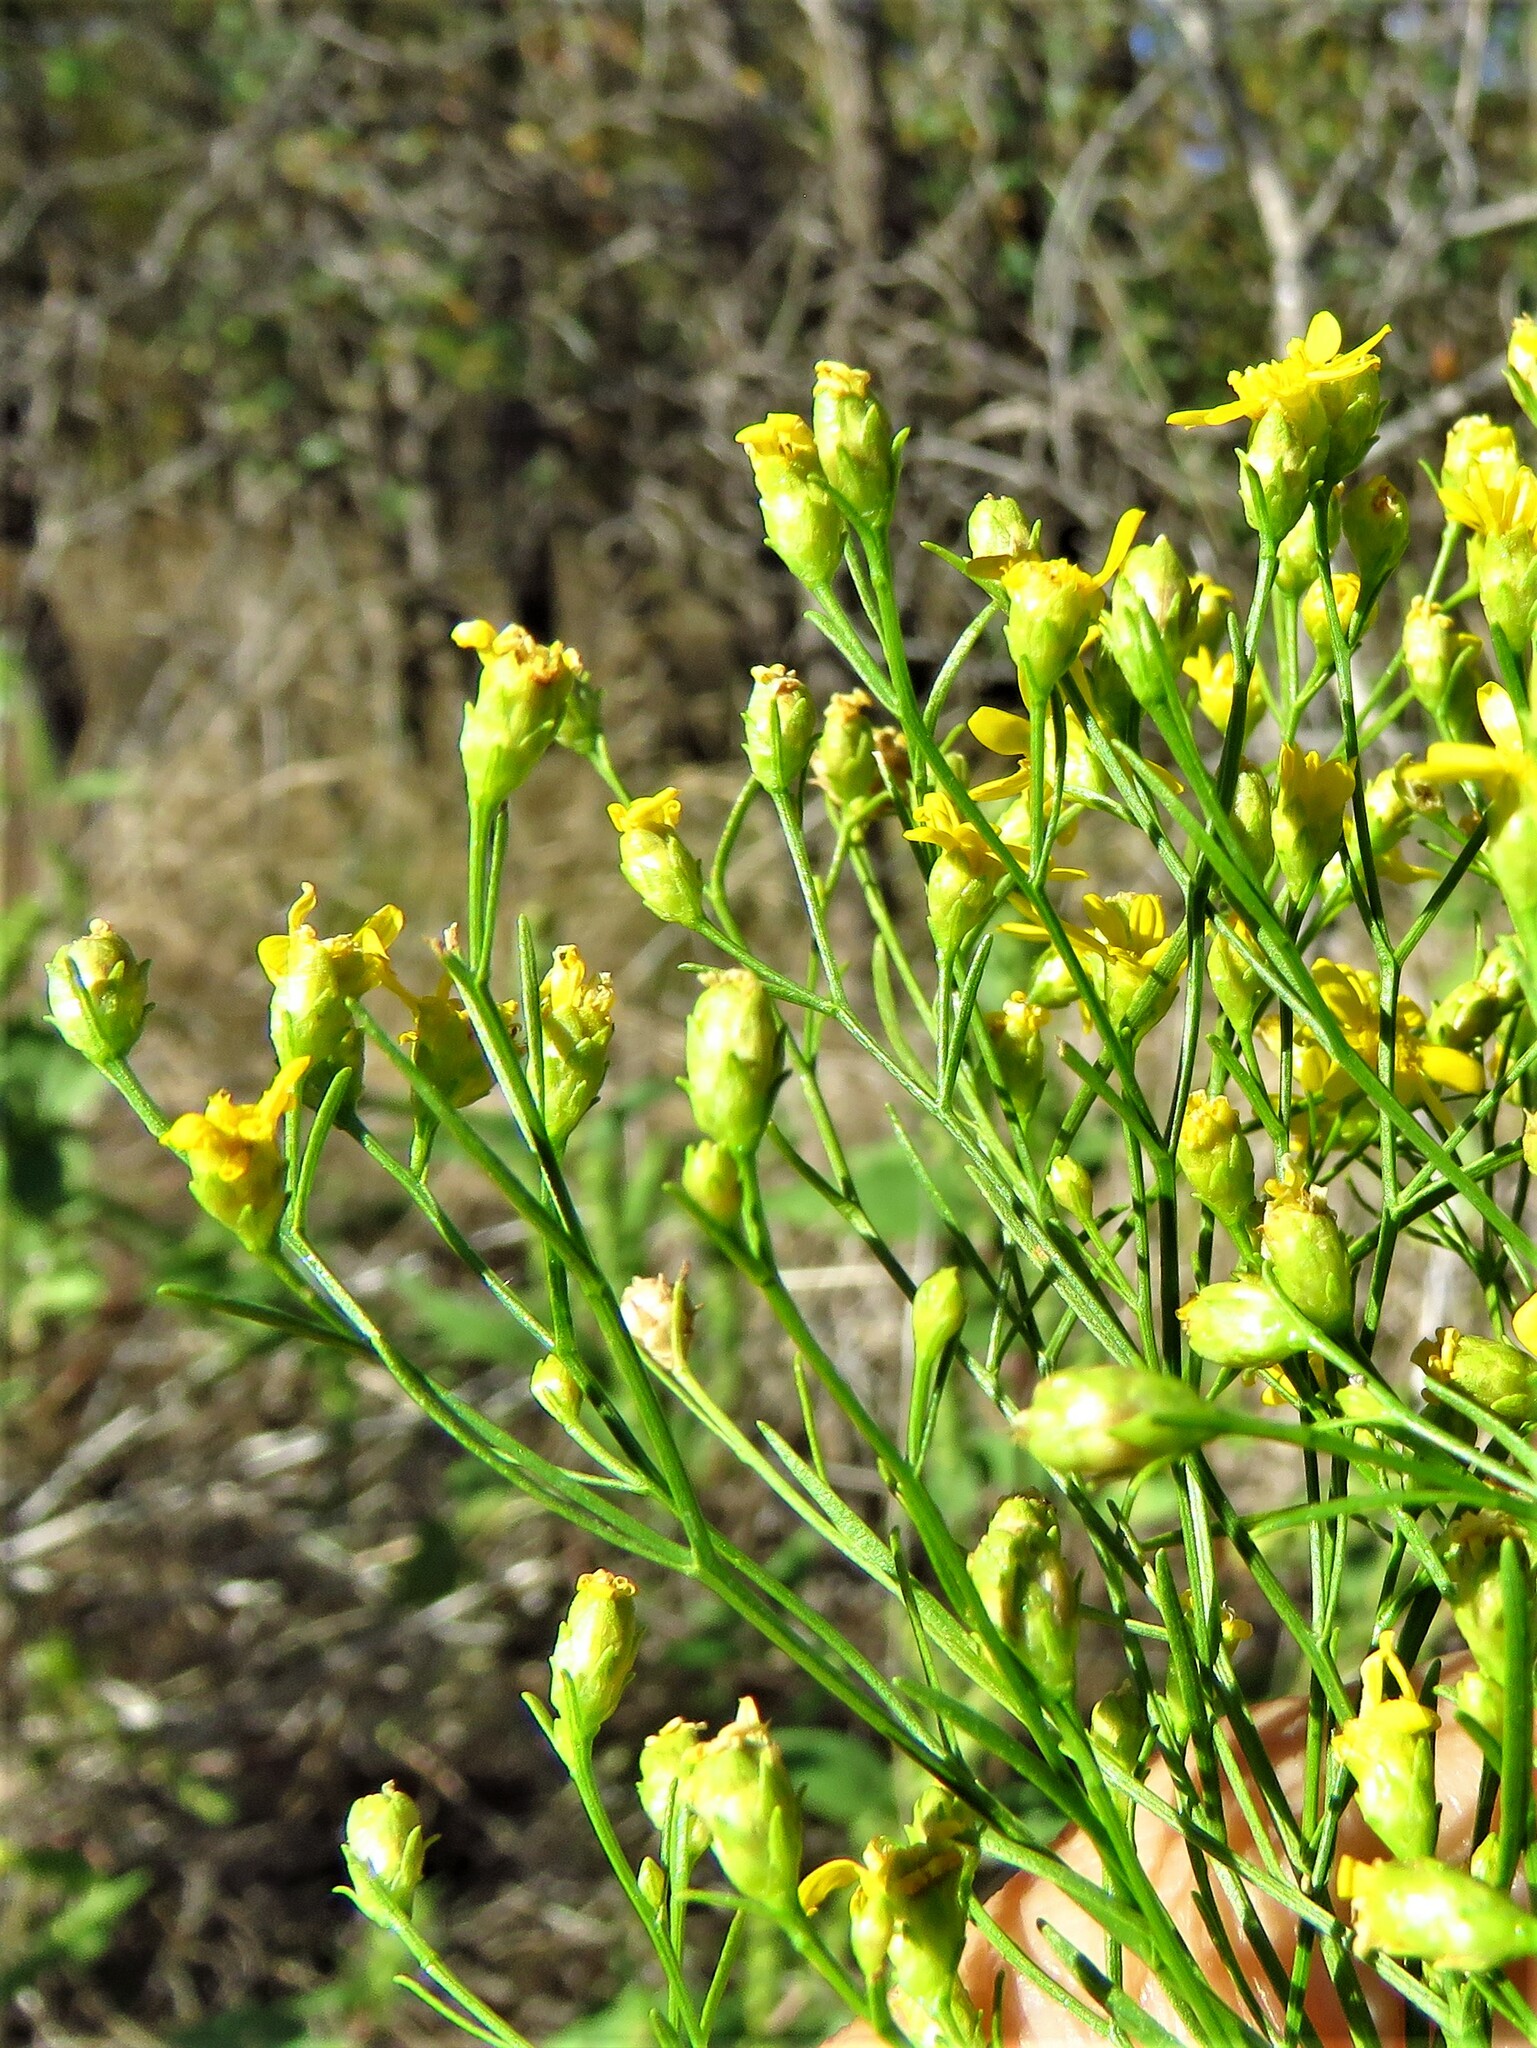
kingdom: Plantae
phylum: Tracheophyta
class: Magnoliopsida
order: Asterales
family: Asteraceae
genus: Amphiachyris
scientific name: Amphiachyris dracunculoides
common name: Broomweed
